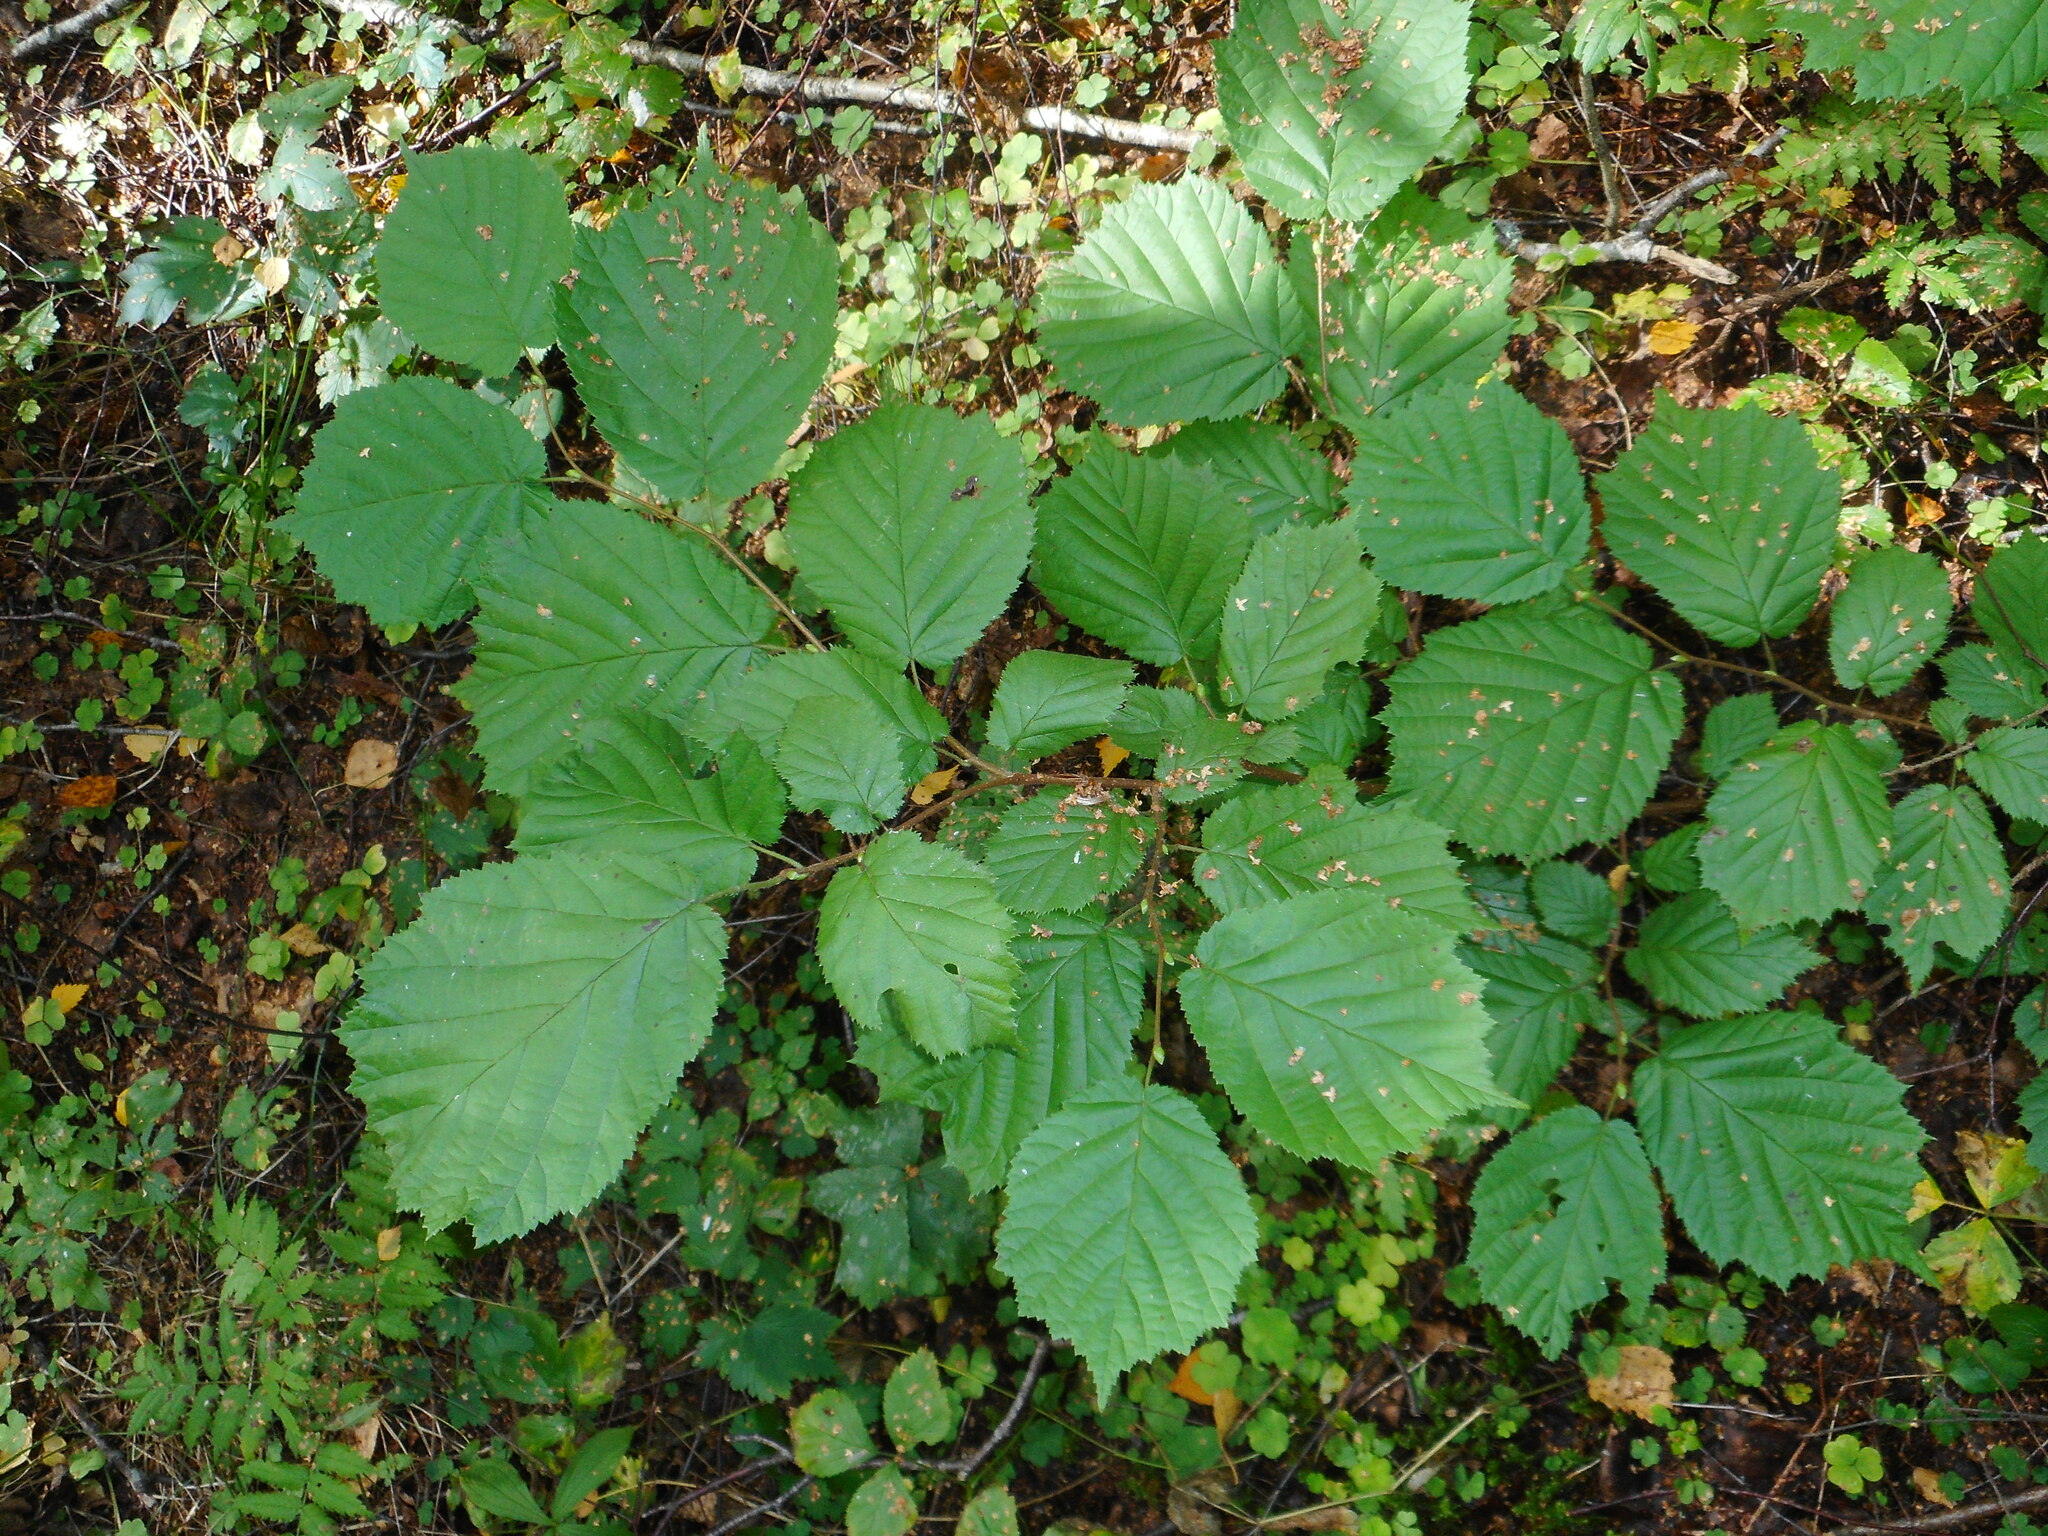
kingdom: Plantae
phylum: Tracheophyta
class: Magnoliopsida
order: Fagales
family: Betulaceae
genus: Corylus
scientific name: Corylus avellana
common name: European hazel
